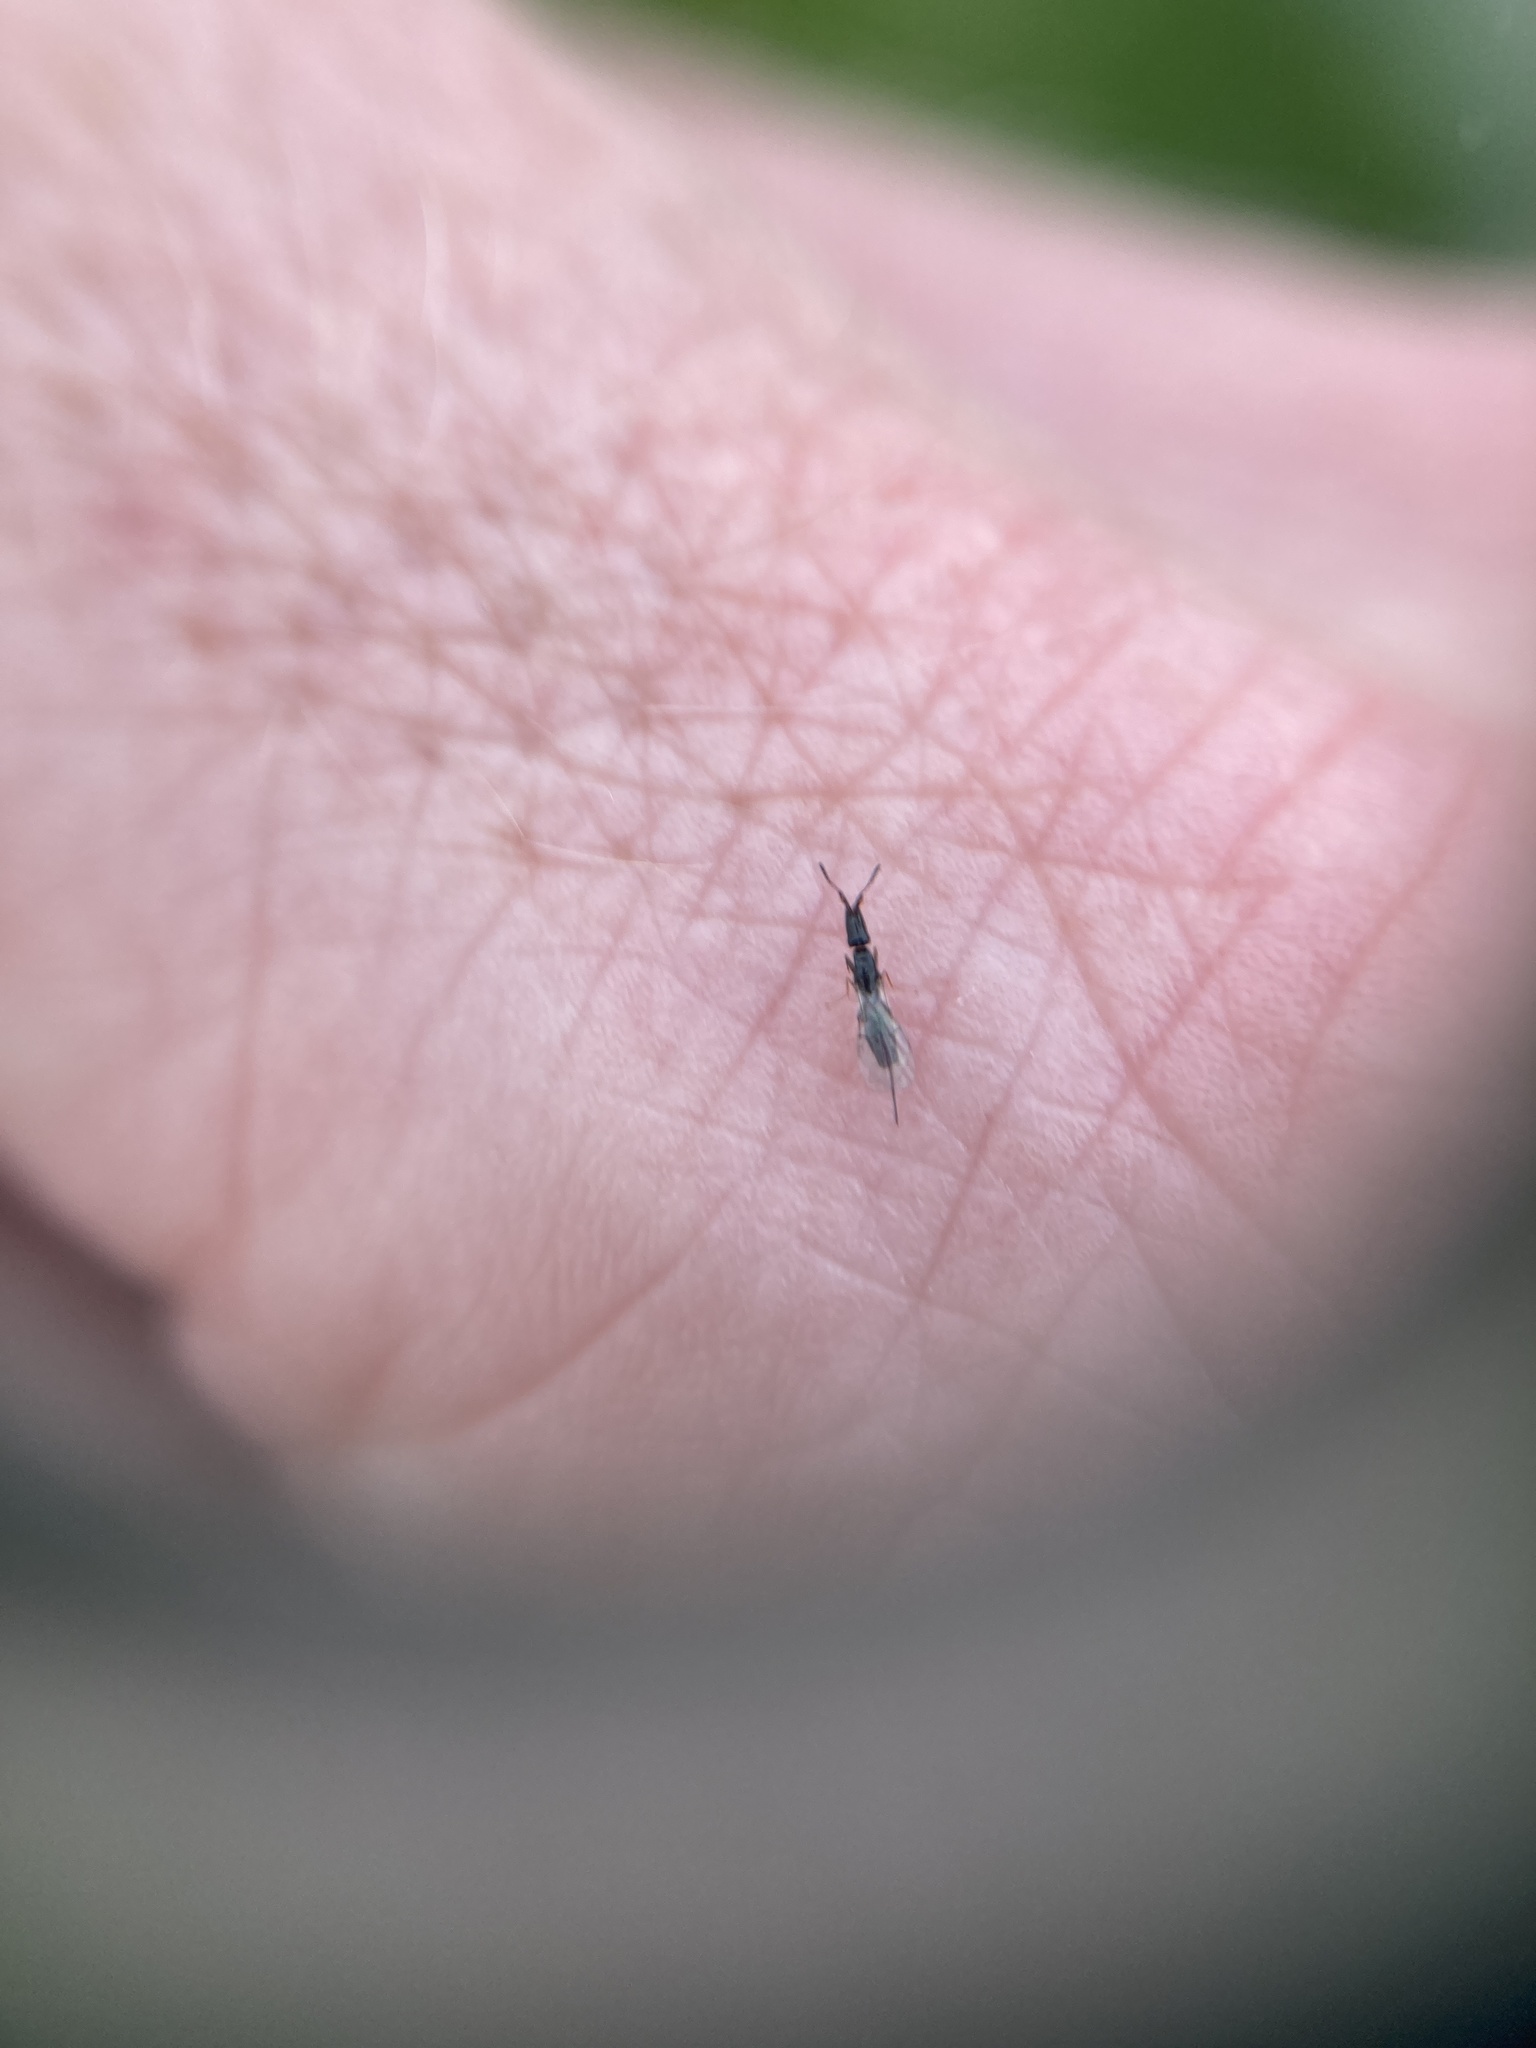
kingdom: Animalia
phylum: Arthropoda
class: Insecta
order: Hymenoptera
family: Agaonidae
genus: Pleistodontes
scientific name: Pleistodontes froggatti
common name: Fig wasp
